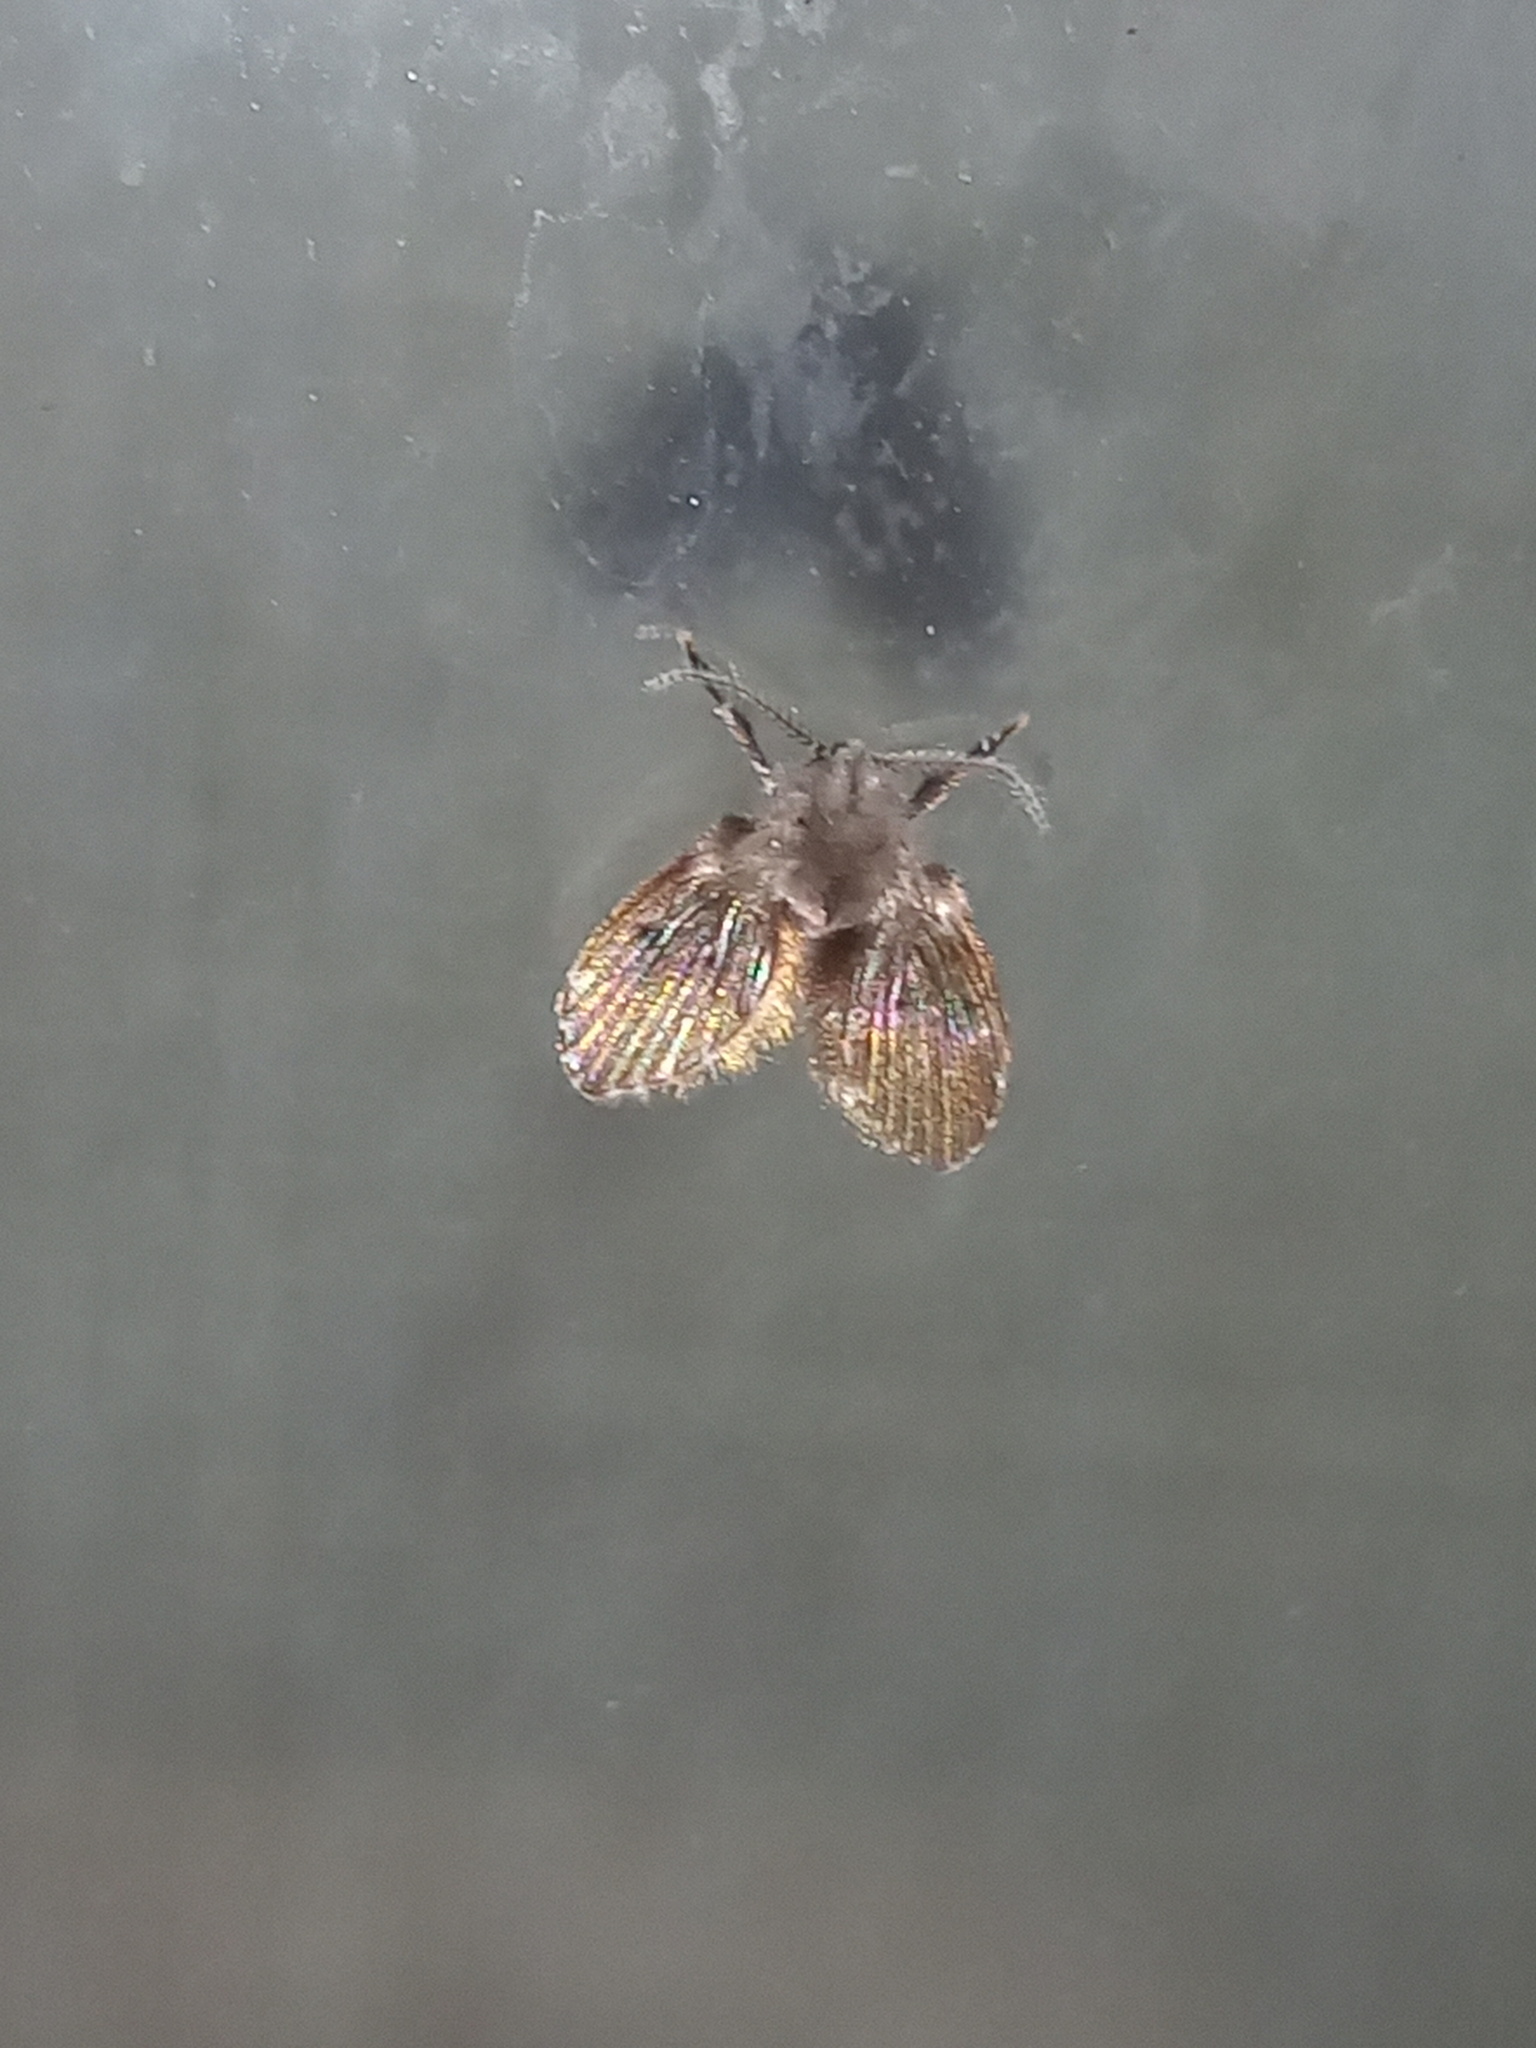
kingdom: Animalia
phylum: Arthropoda
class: Insecta
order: Diptera
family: Psychodidae
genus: Clogmia
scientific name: Clogmia albipunctatus
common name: White-spotted moth fly
